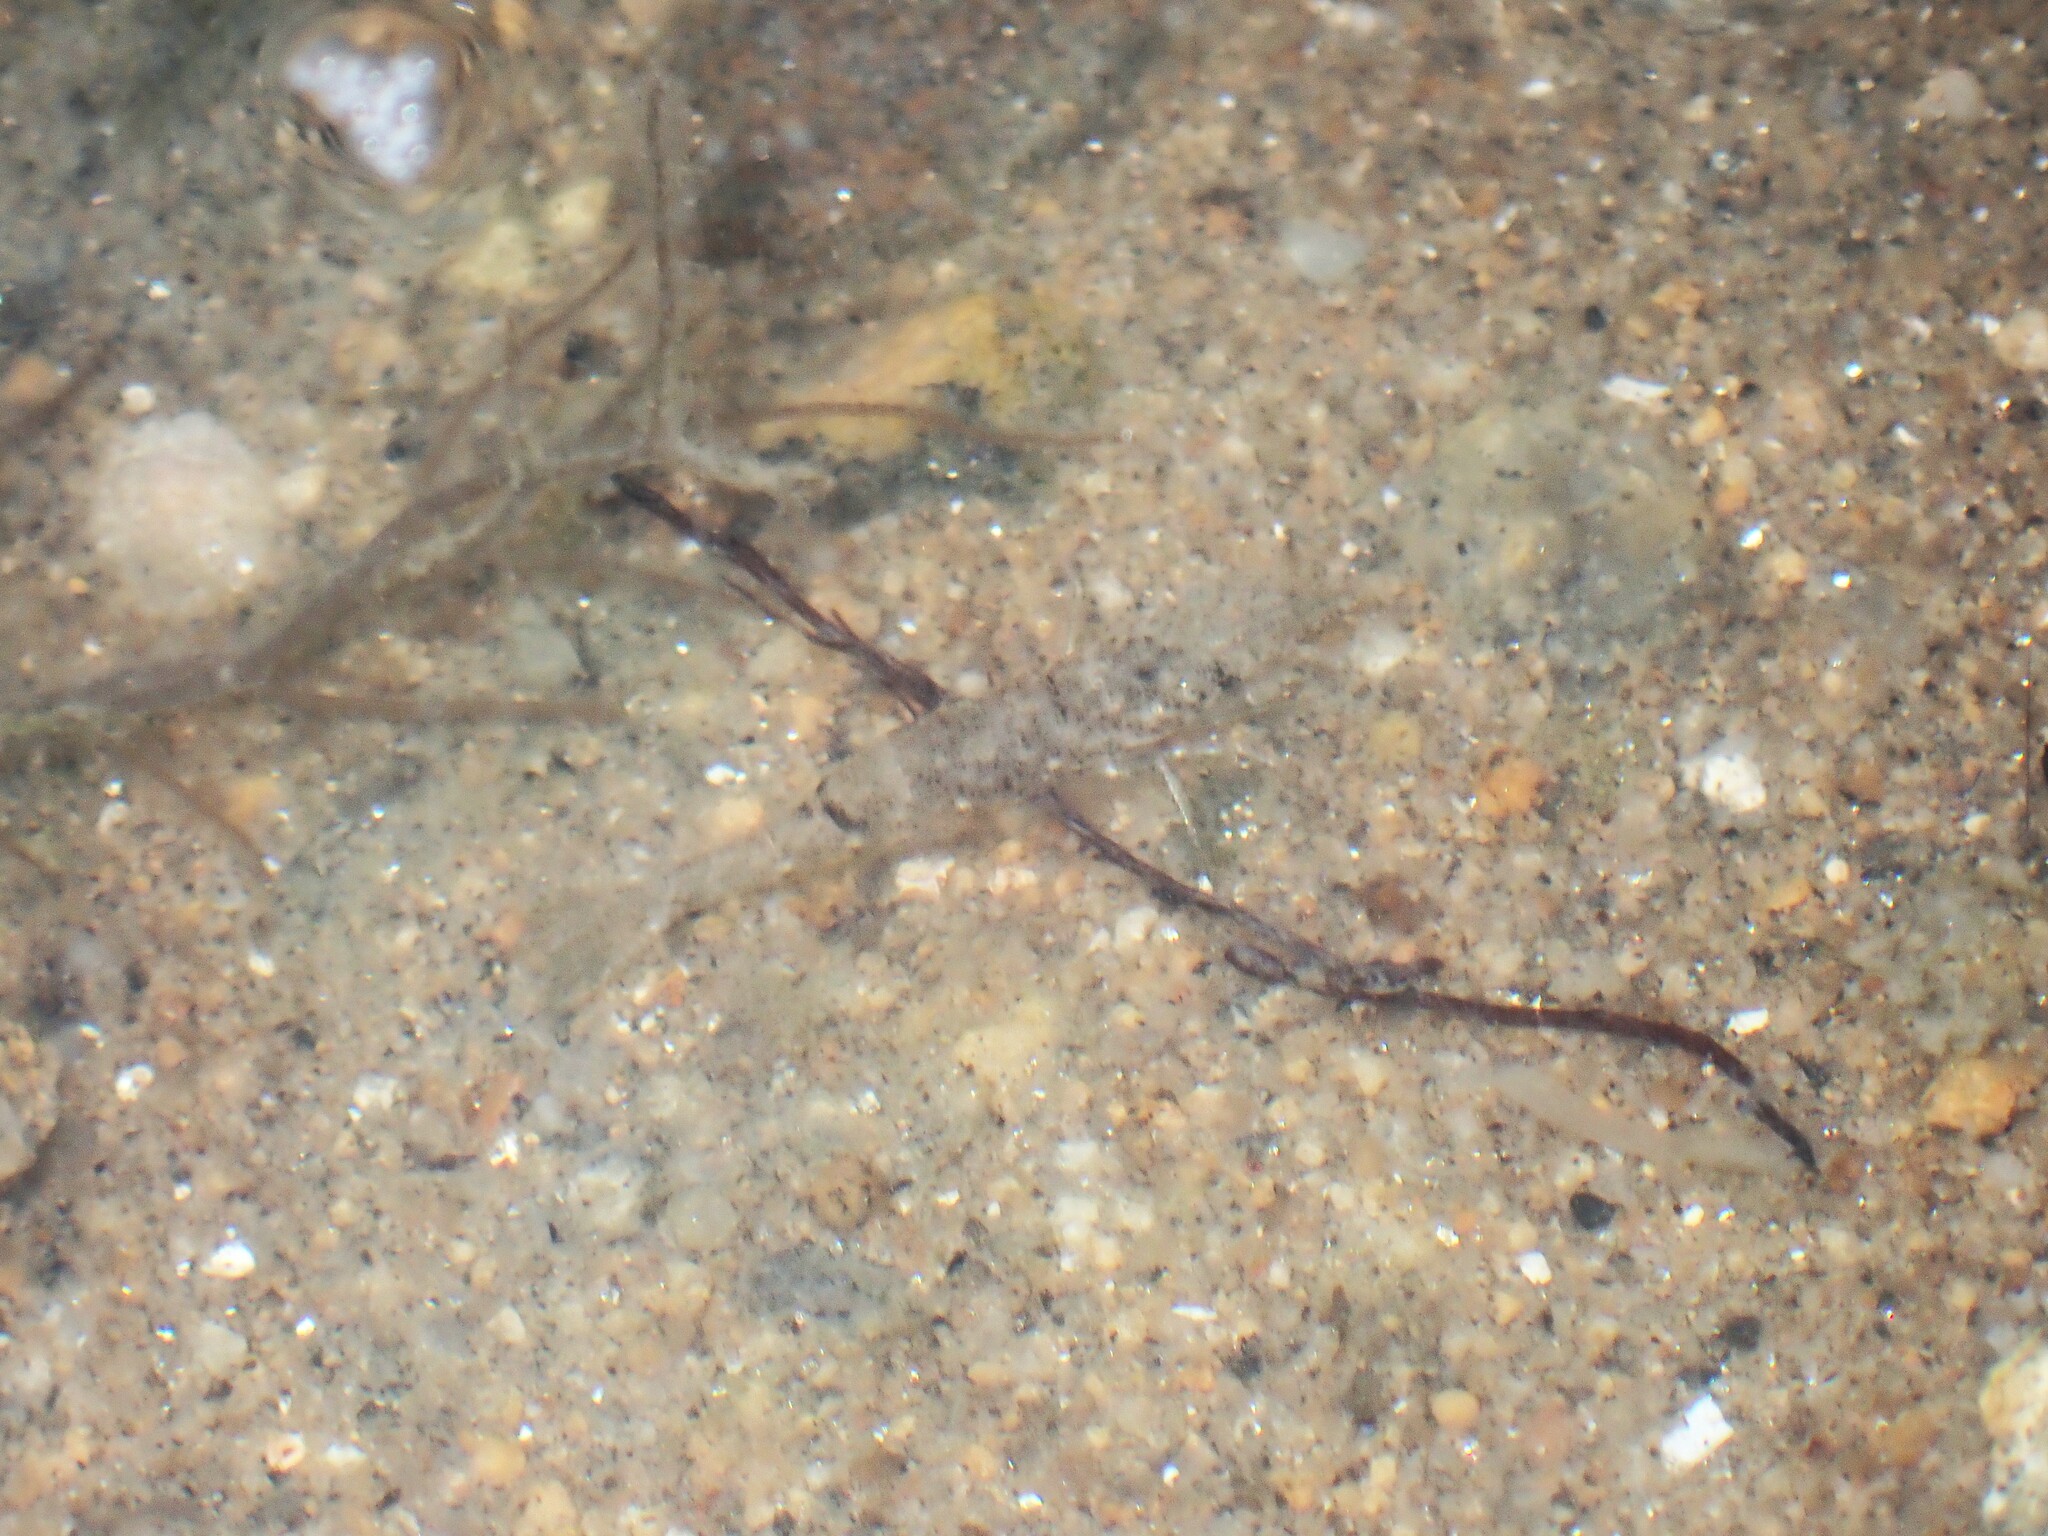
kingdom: Animalia
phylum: Arthropoda
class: Malacostraca
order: Decapoda
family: Crangonidae
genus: Crangon
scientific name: Crangon crangon
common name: Brown shrimp
